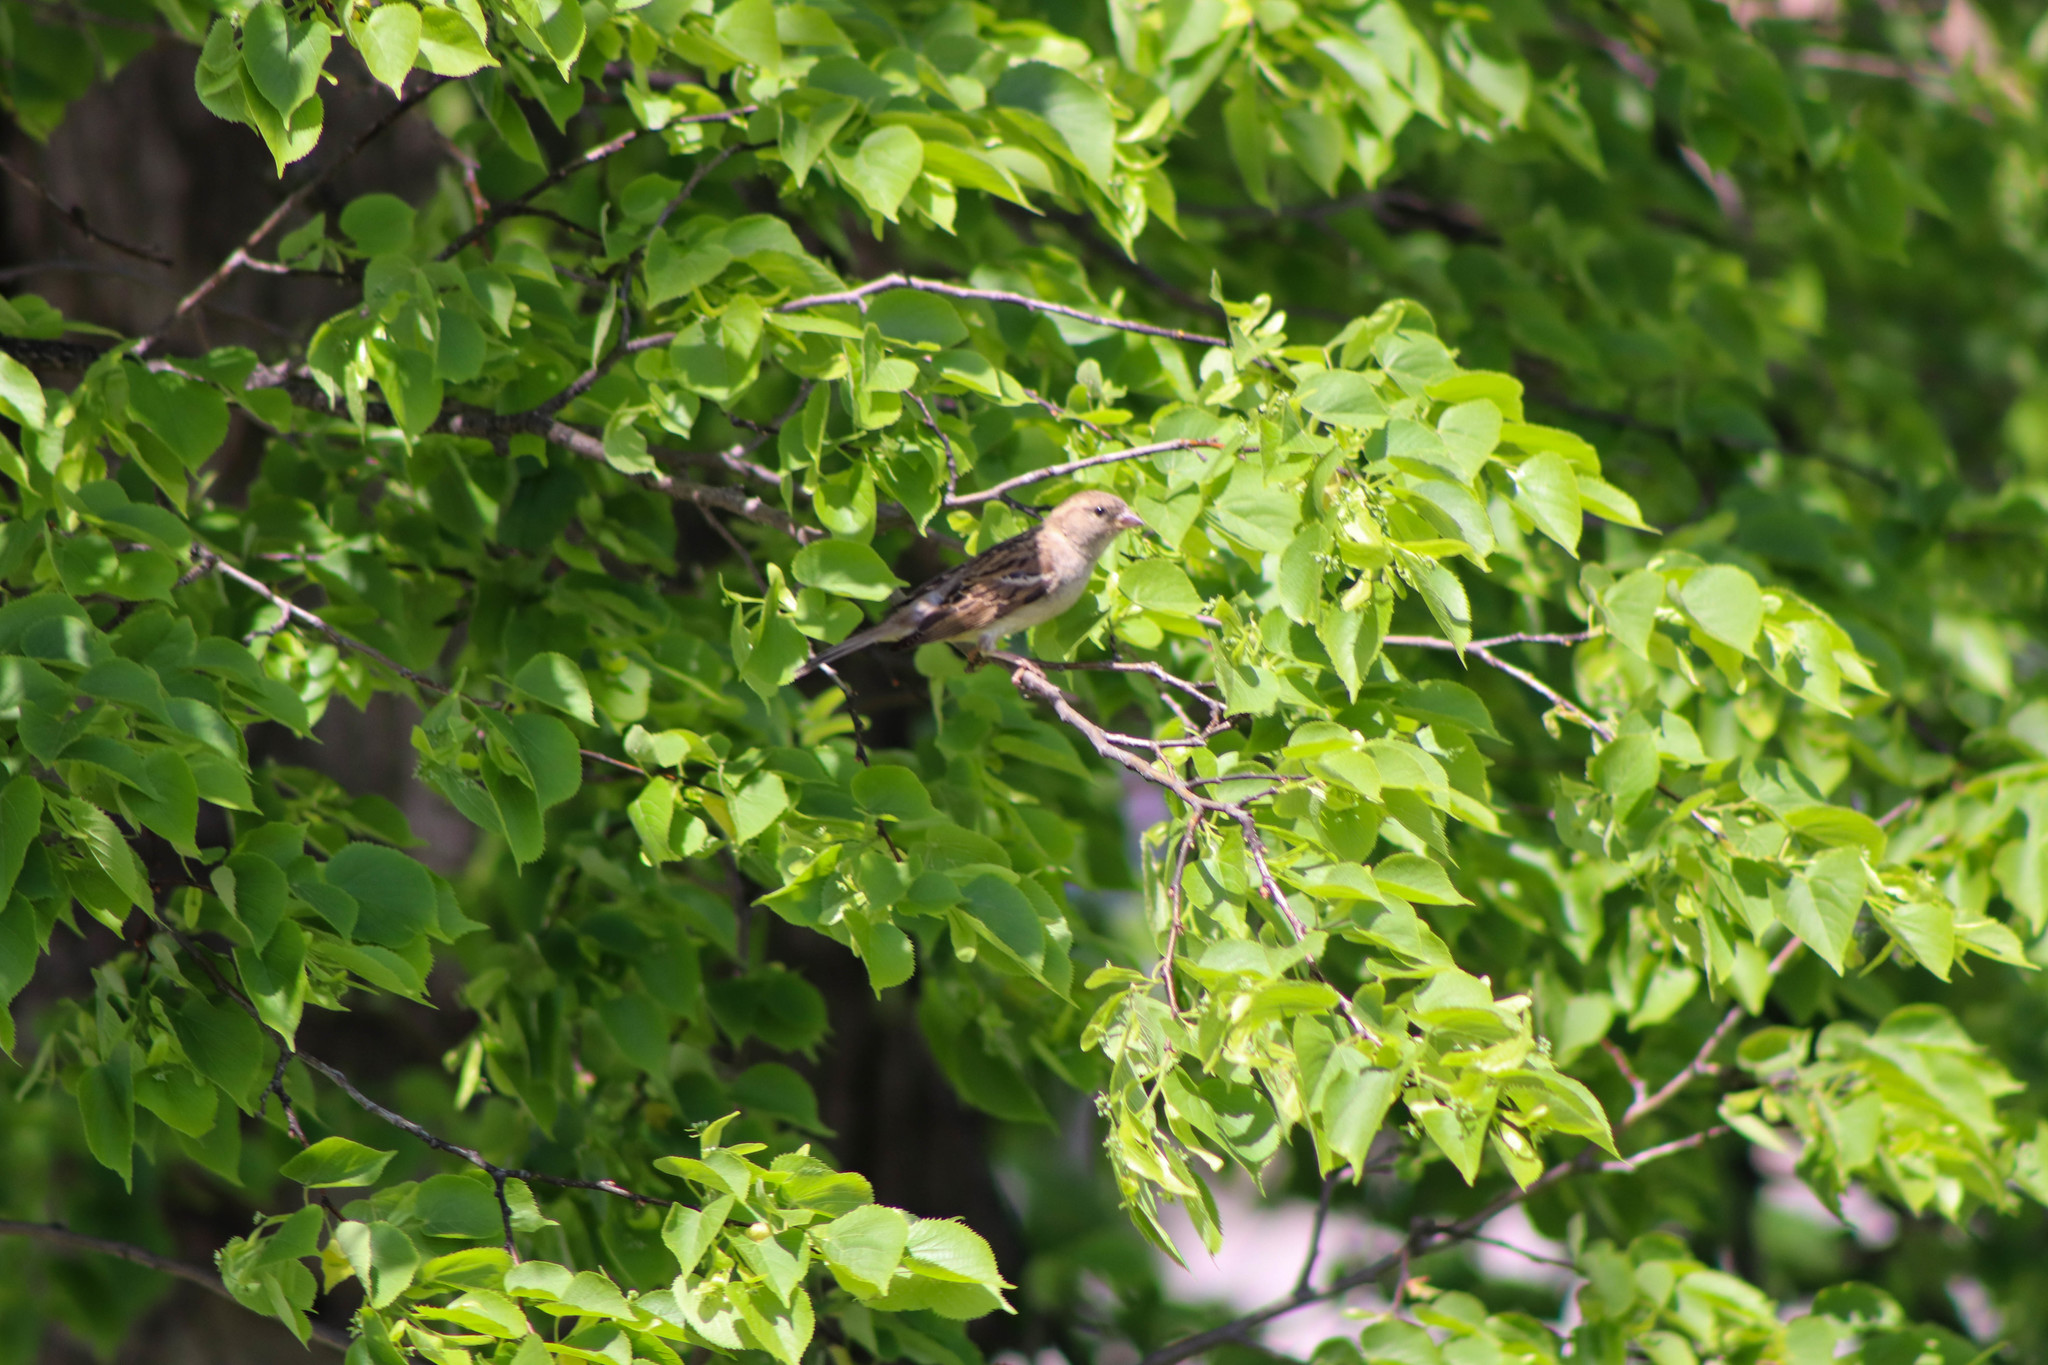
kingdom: Animalia
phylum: Chordata
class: Aves
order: Passeriformes
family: Passeridae
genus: Passer
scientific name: Passer domesticus
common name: House sparrow
